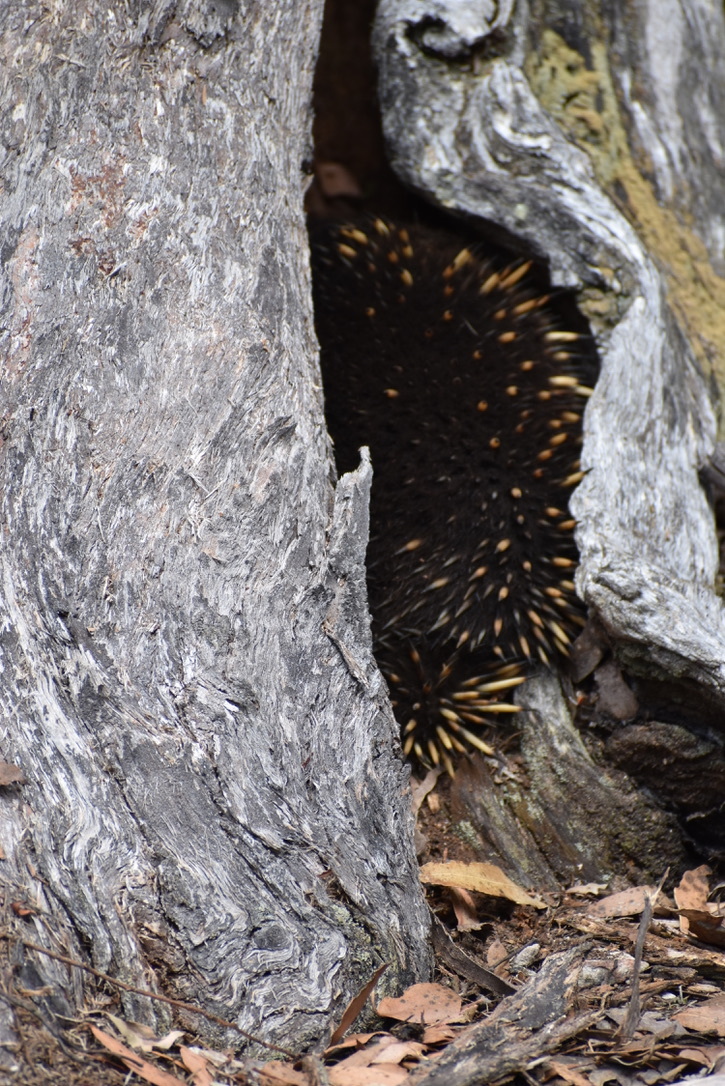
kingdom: Animalia
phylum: Chordata
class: Mammalia
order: Monotremata
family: Tachyglossidae
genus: Tachyglossus
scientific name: Tachyglossus aculeatus
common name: Short-beaked echidna
